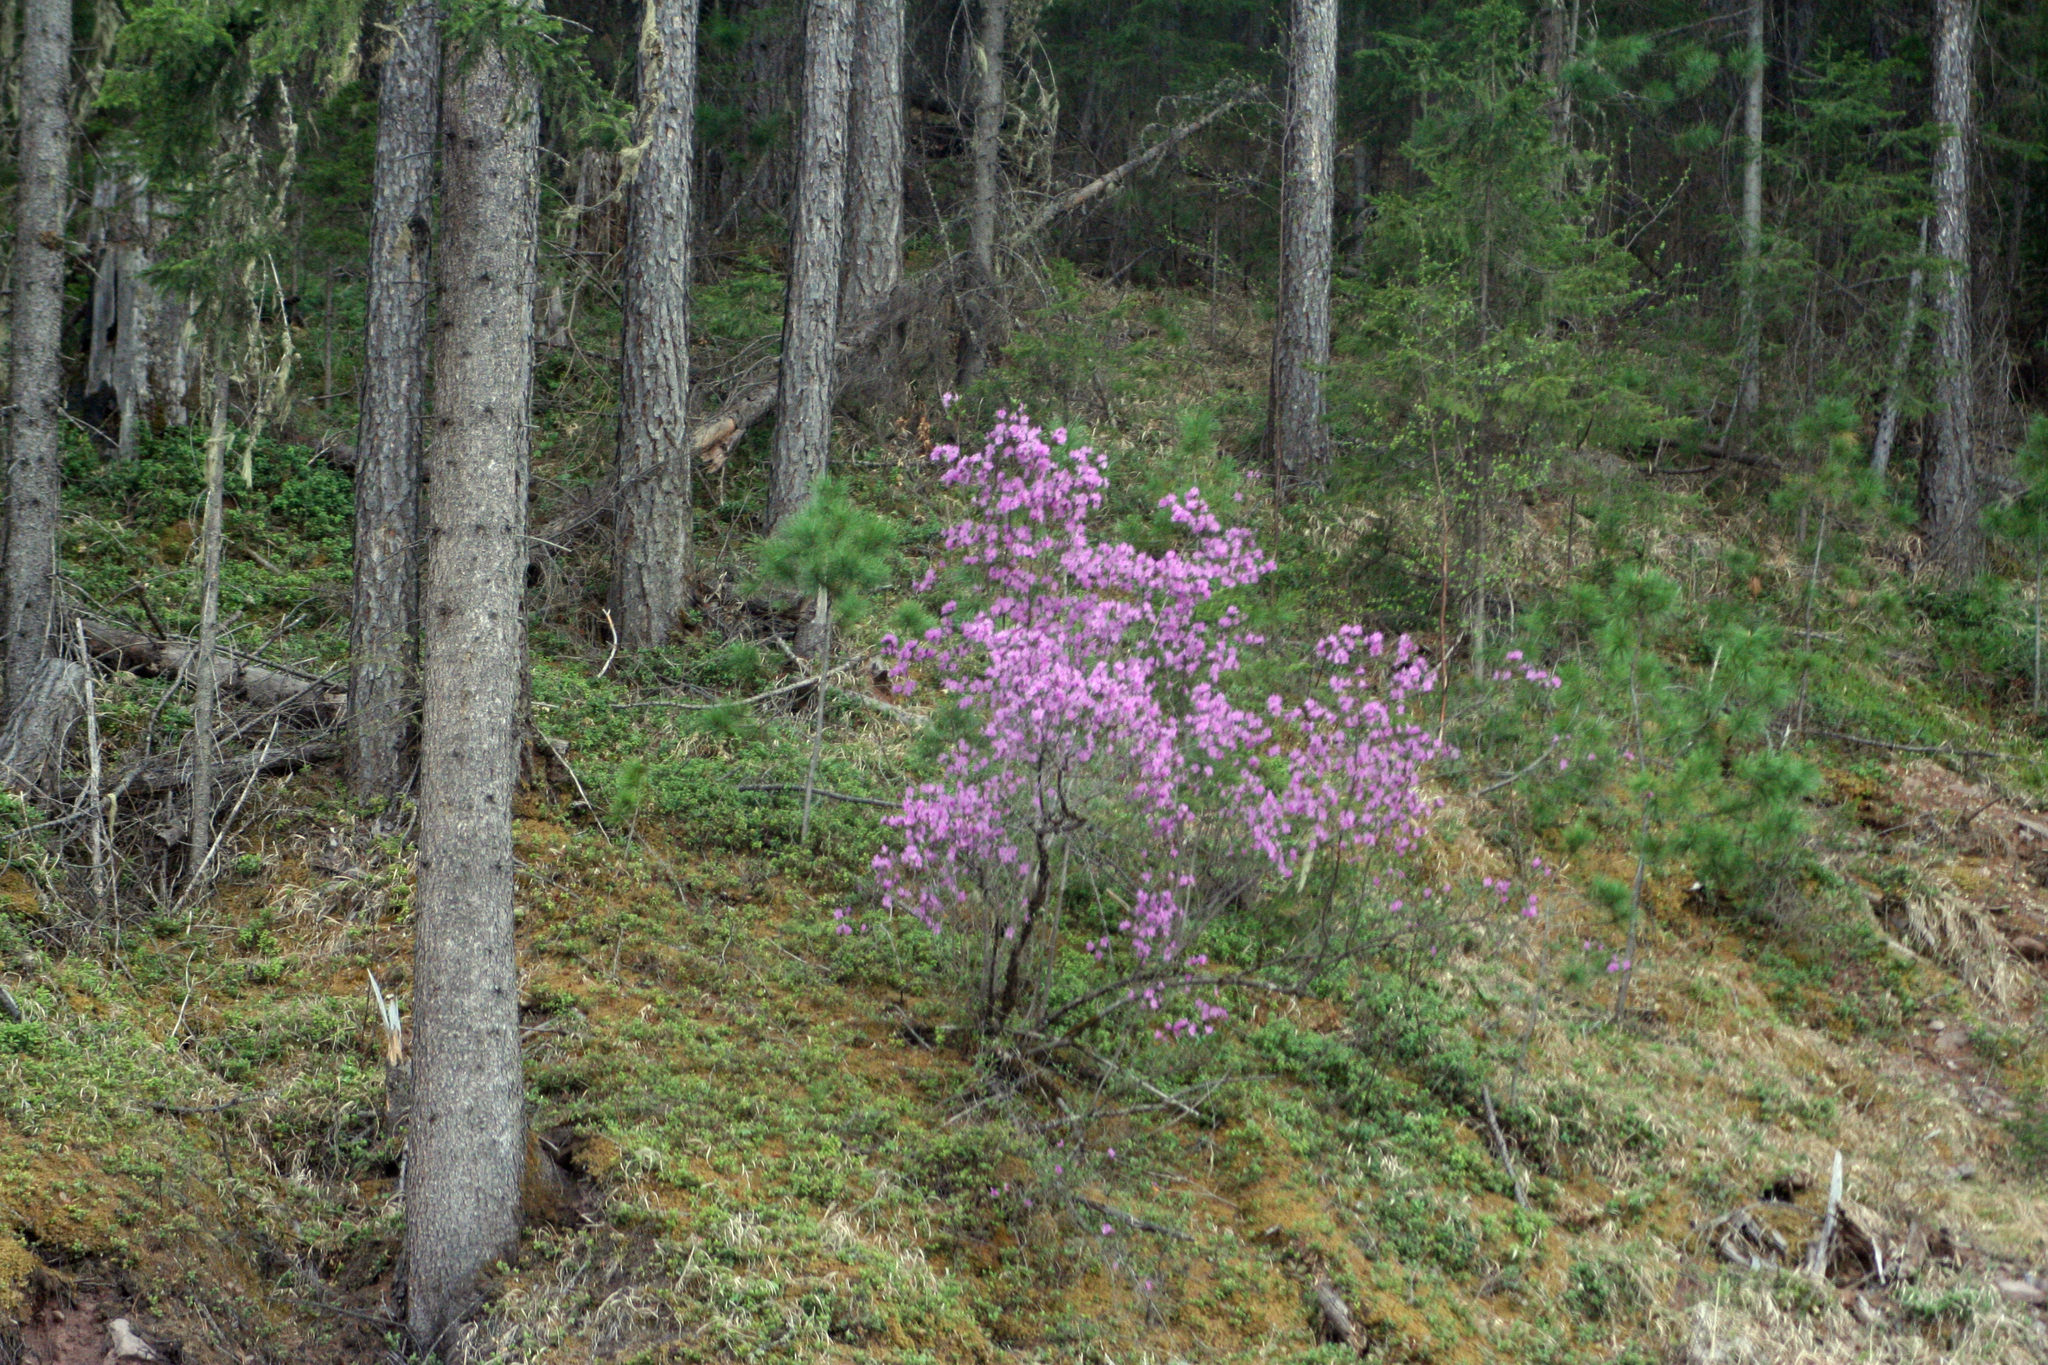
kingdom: Plantae
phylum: Tracheophyta
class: Magnoliopsida
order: Ericales
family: Ericaceae
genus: Rhododendron
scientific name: Rhododendron dauricum
